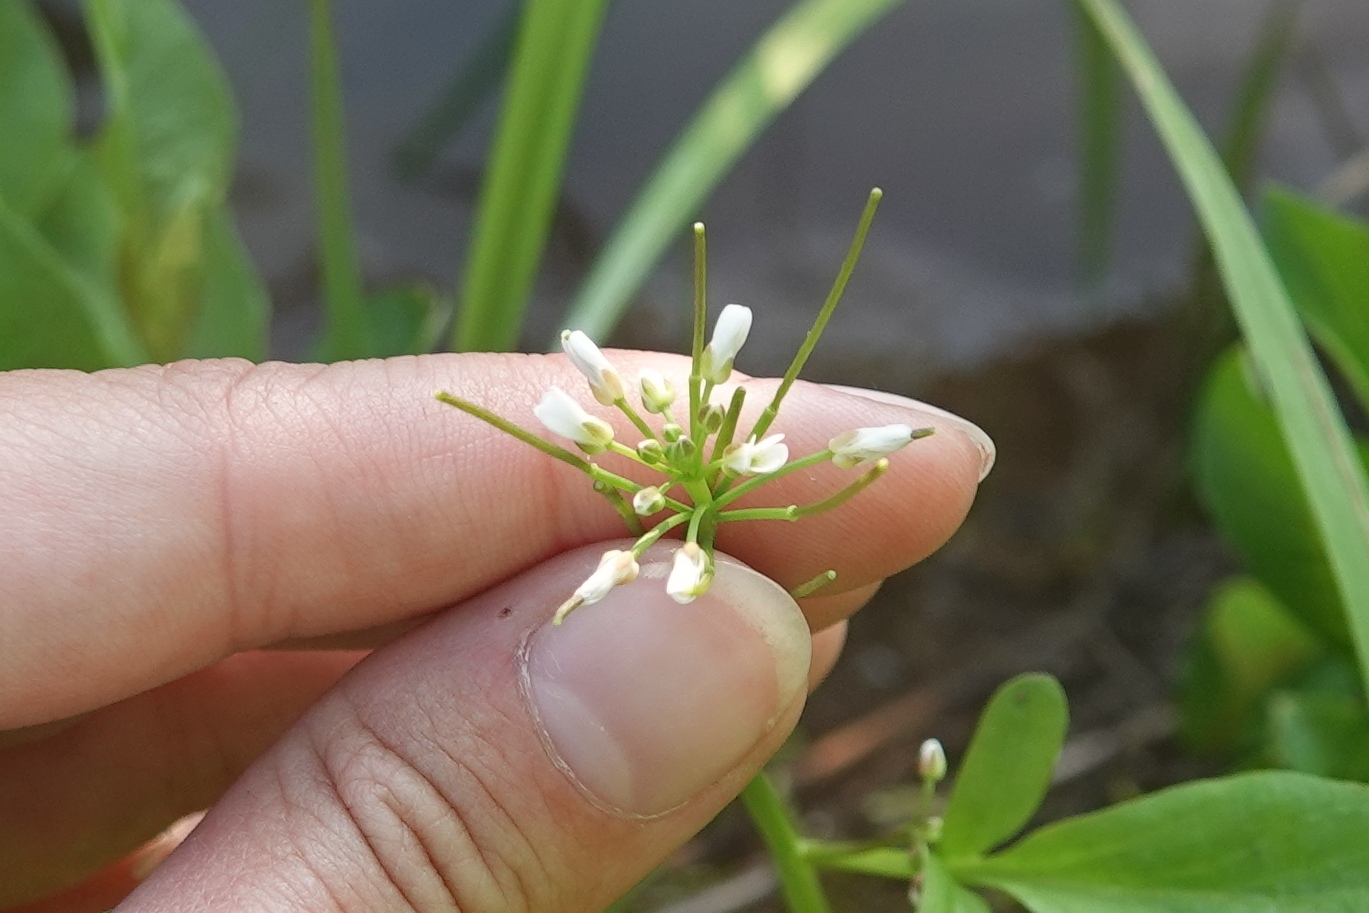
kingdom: Plantae
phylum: Tracheophyta
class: Magnoliopsida
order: Brassicales
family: Brassicaceae
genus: Cardamine
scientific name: Cardamine scutata
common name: Japanese bittercress
